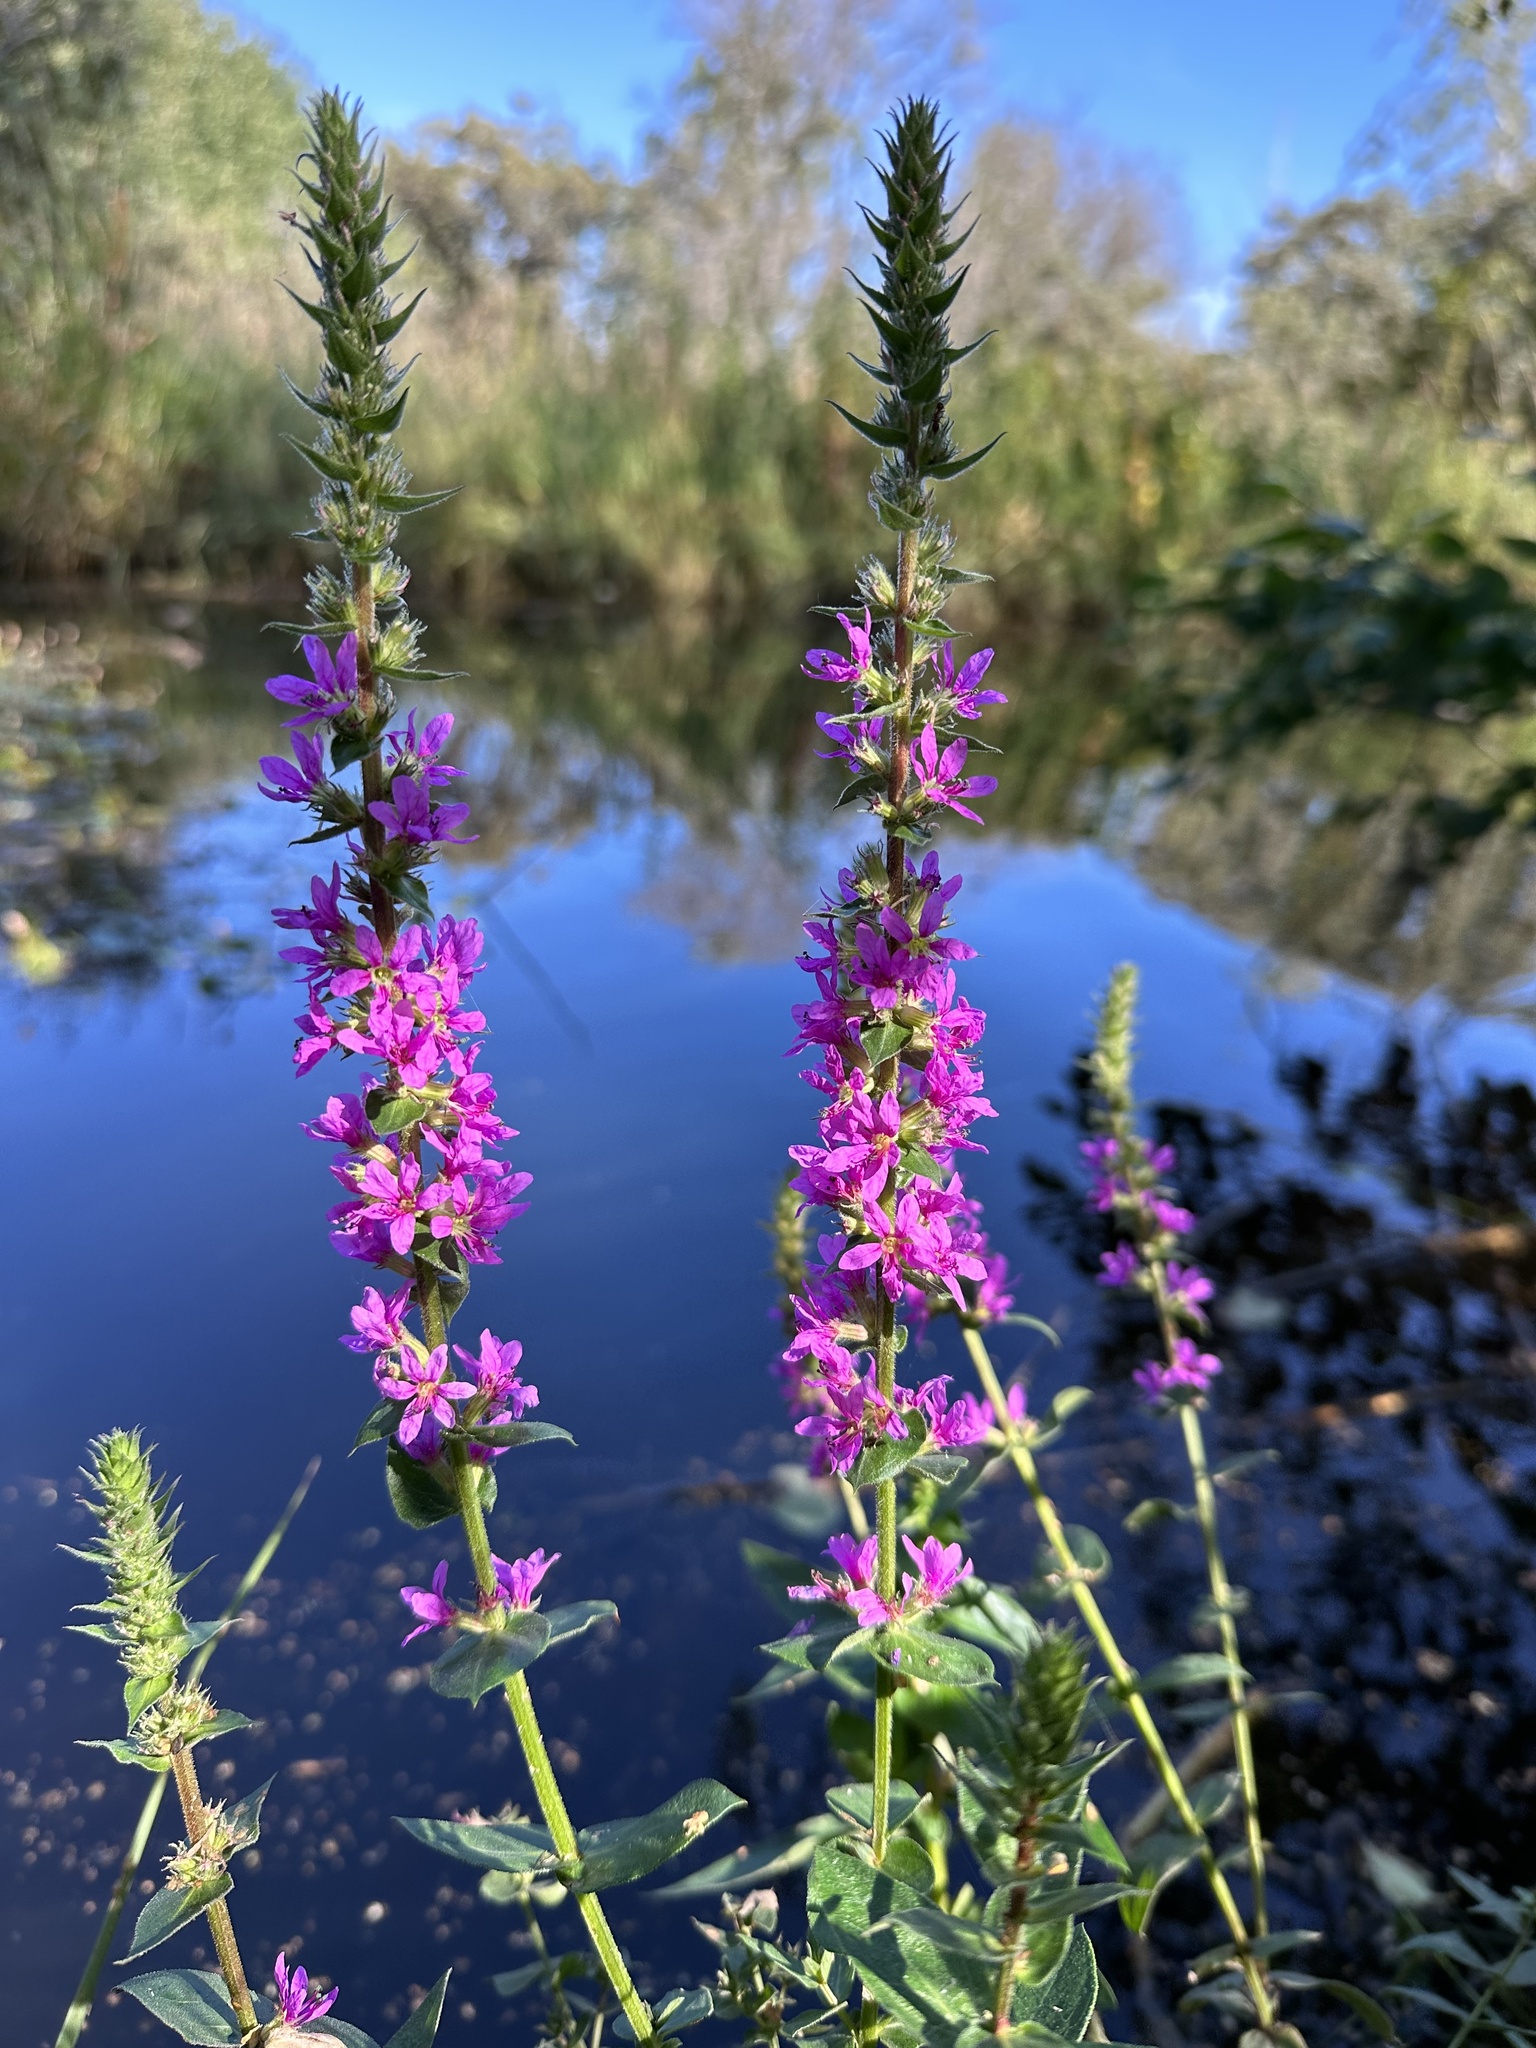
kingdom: Plantae
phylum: Tracheophyta
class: Magnoliopsida
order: Myrtales
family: Lythraceae
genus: Lythrum
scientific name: Lythrum salicaria
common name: Purple loosestrife
